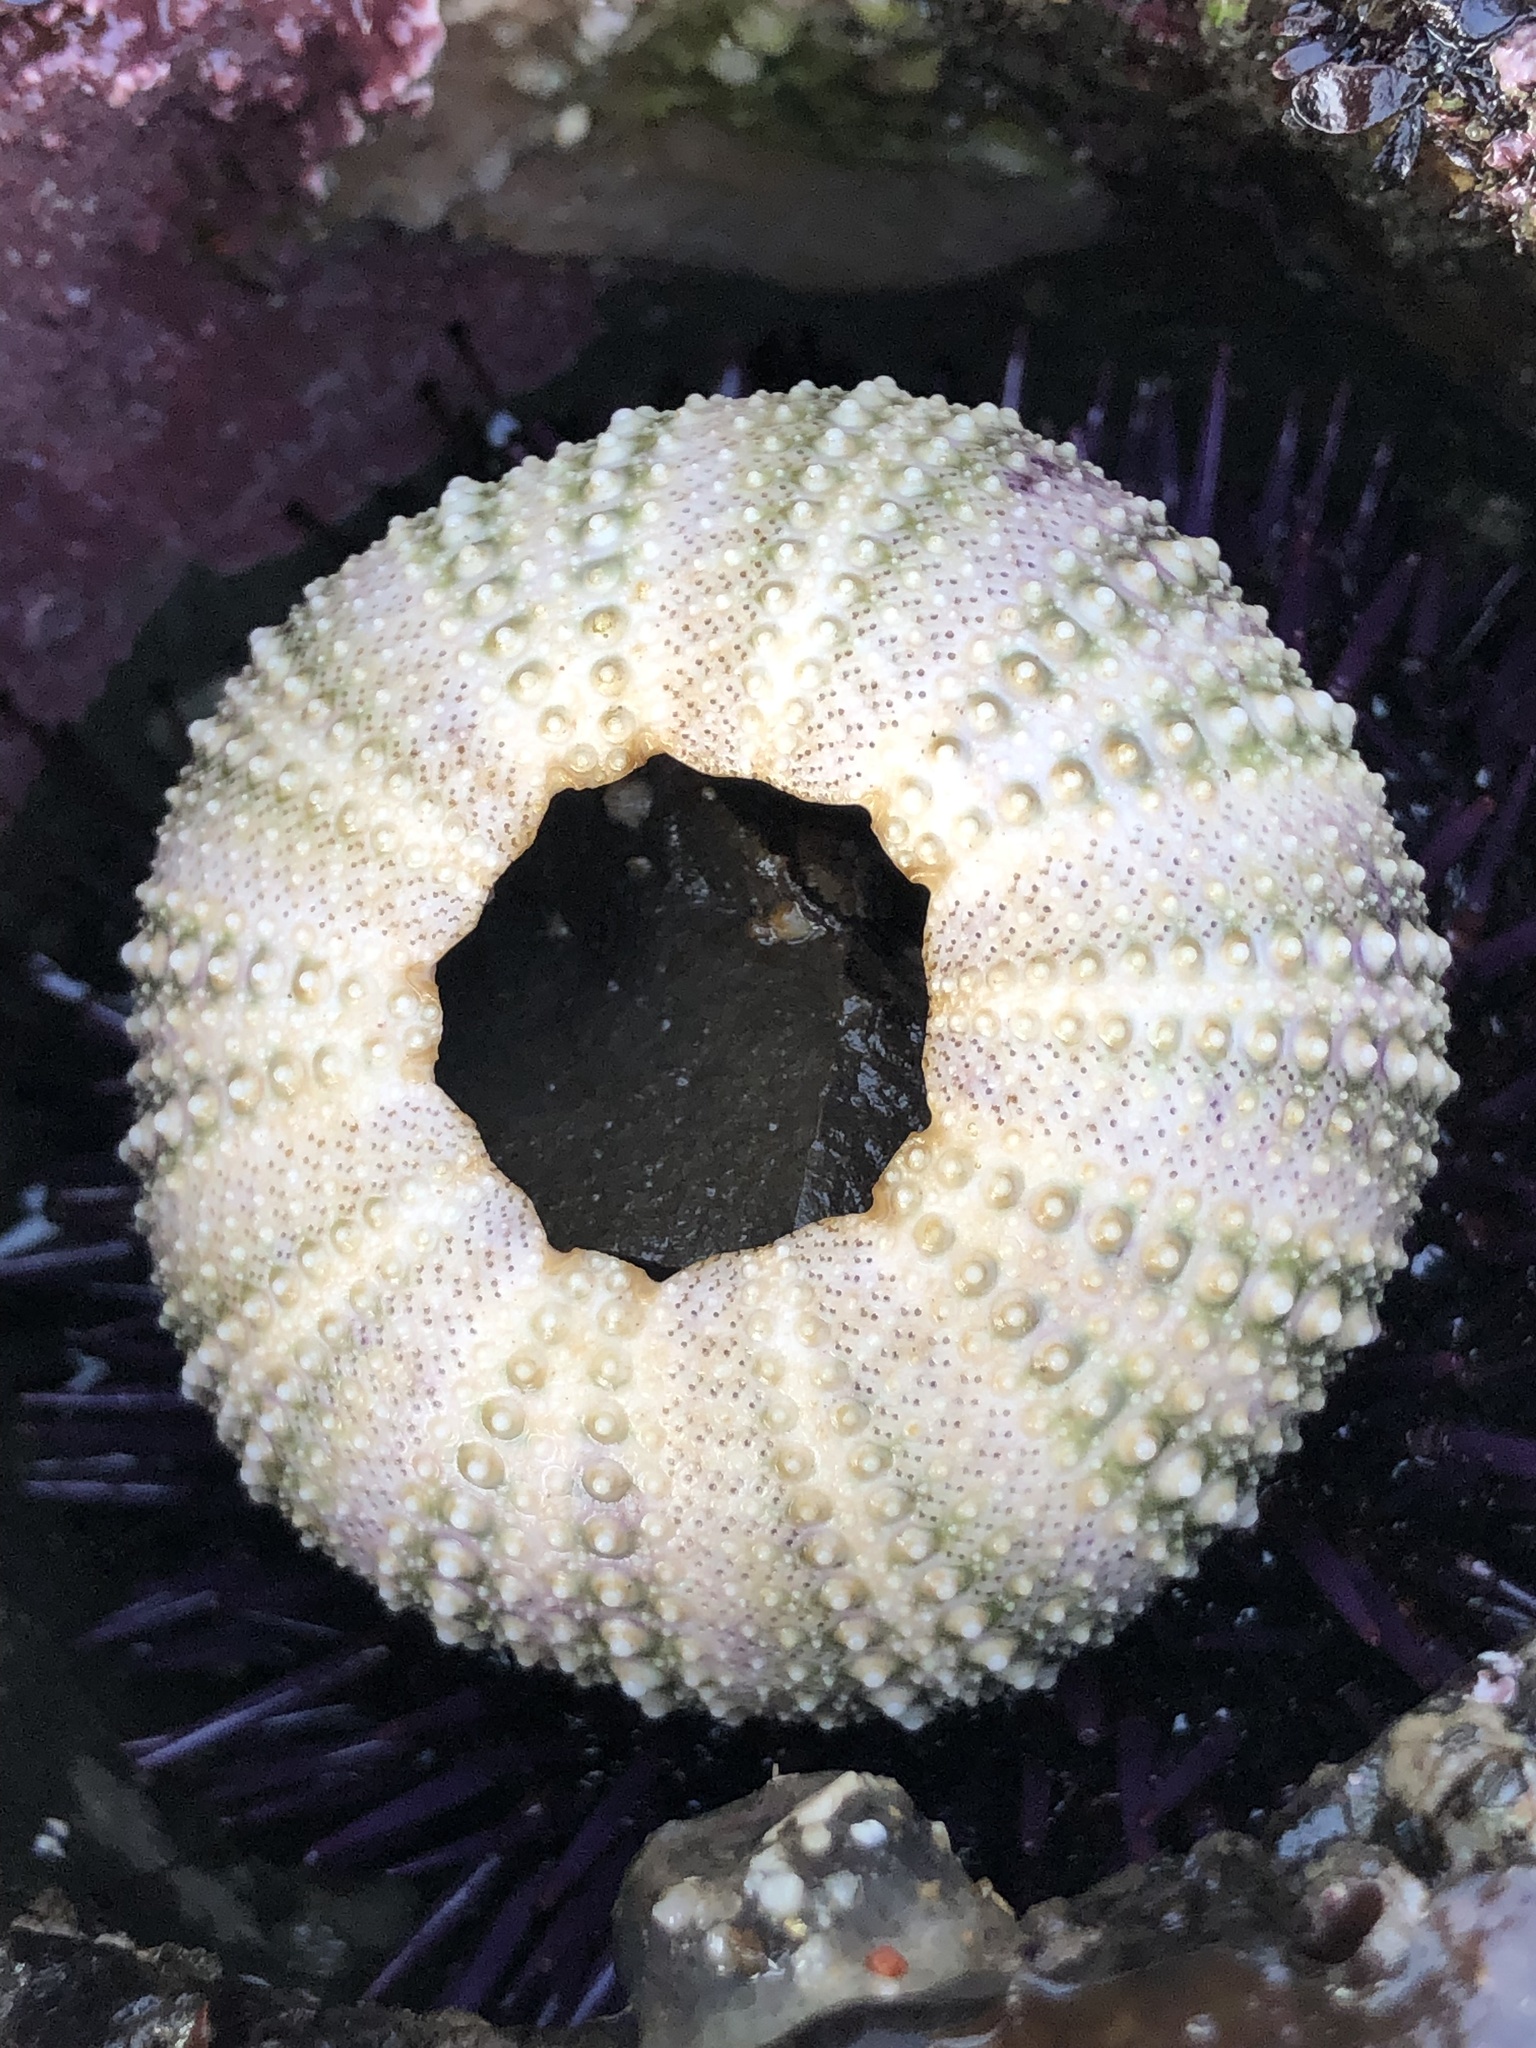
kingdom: Animalia
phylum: Echinodermata
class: Echinoidea
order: Camarodonta
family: Strongylocentrotidae
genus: Strongylocentrotus
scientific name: Strongylocentrotus purpuratus
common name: Purple sea urchin
